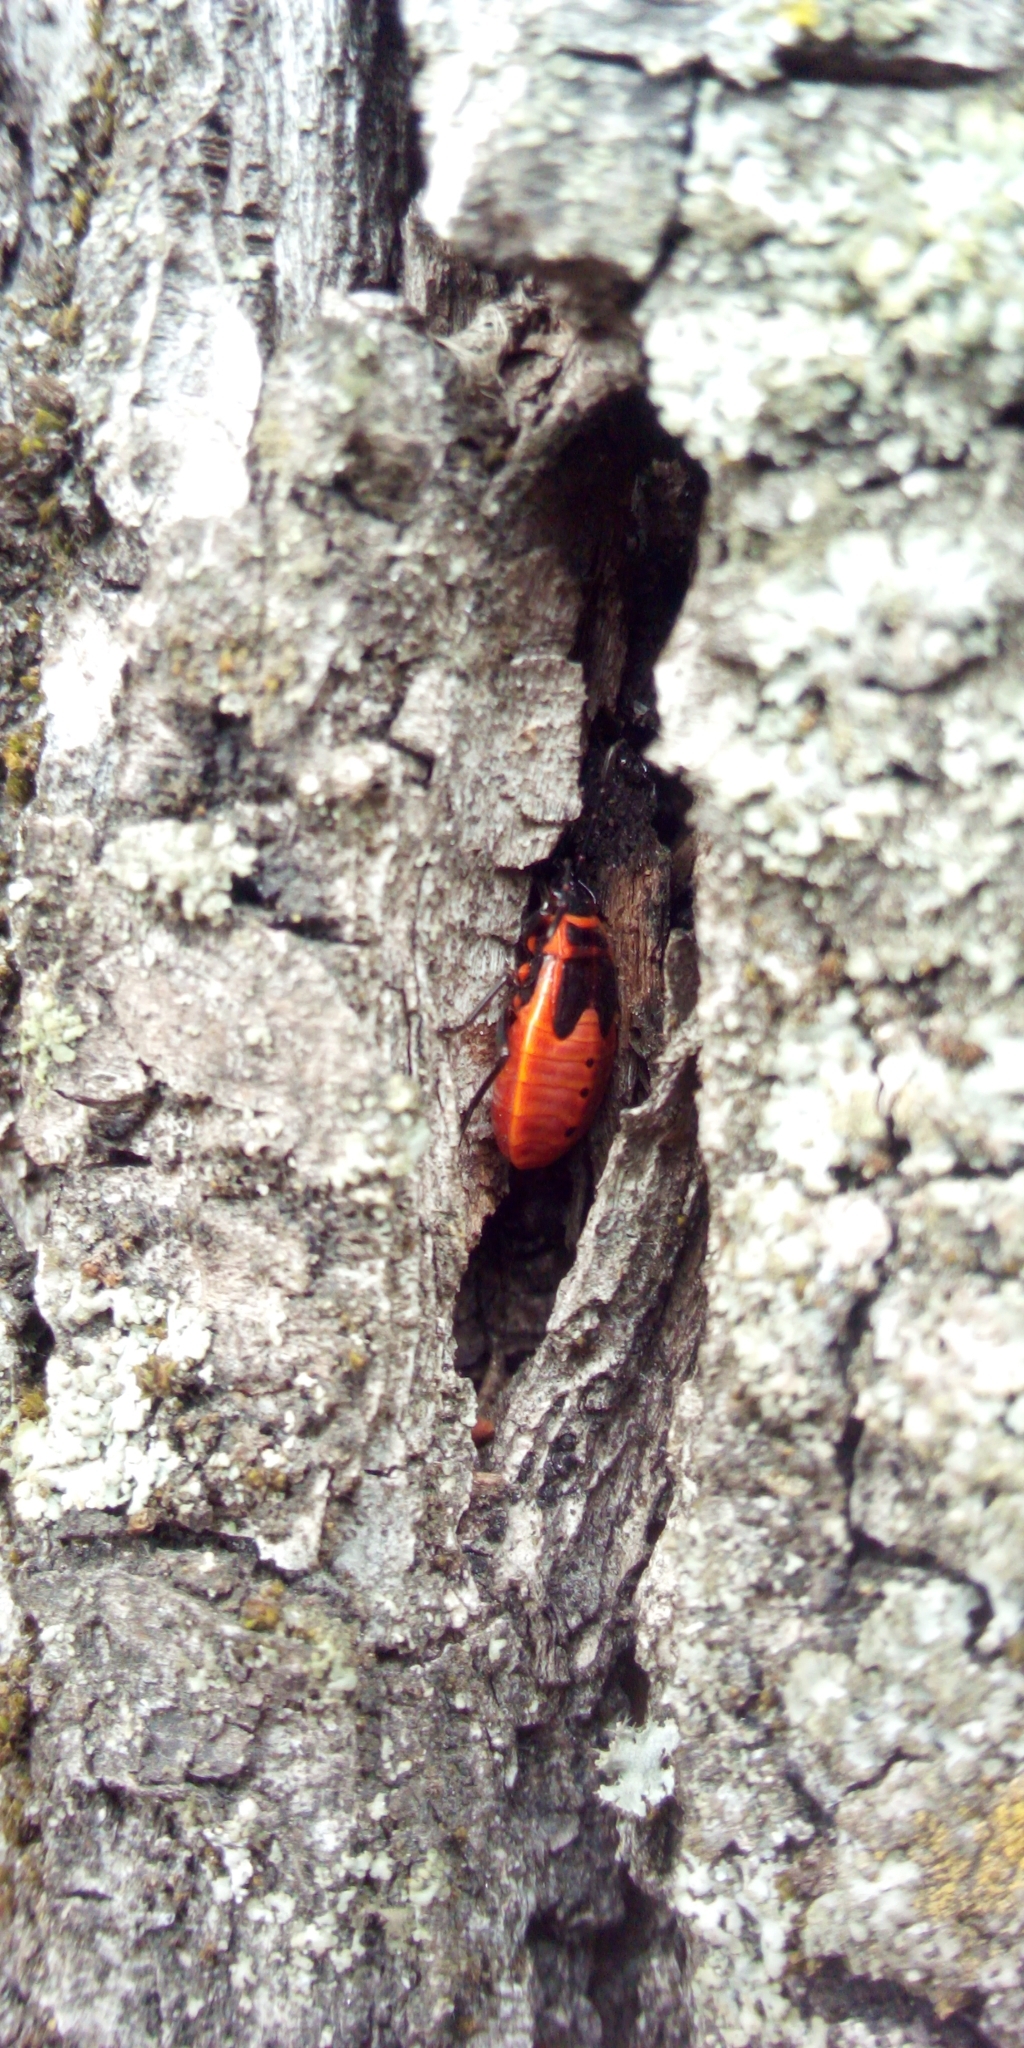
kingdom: Animalia
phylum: Arthropoda
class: Insecta
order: Hemiptera
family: Pyrrhocoridae
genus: Pyrrhocoris
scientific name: Pyrrhocoris apterus
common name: Firebug
